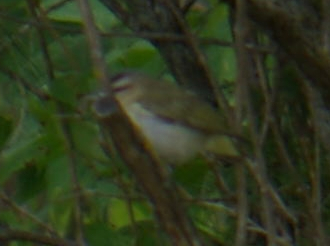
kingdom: Animalia
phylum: Chordata
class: Aves
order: Passeriformes
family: Vireonidae
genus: Vireo
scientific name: Vireo olivaceus
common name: Red-eyed vireo
